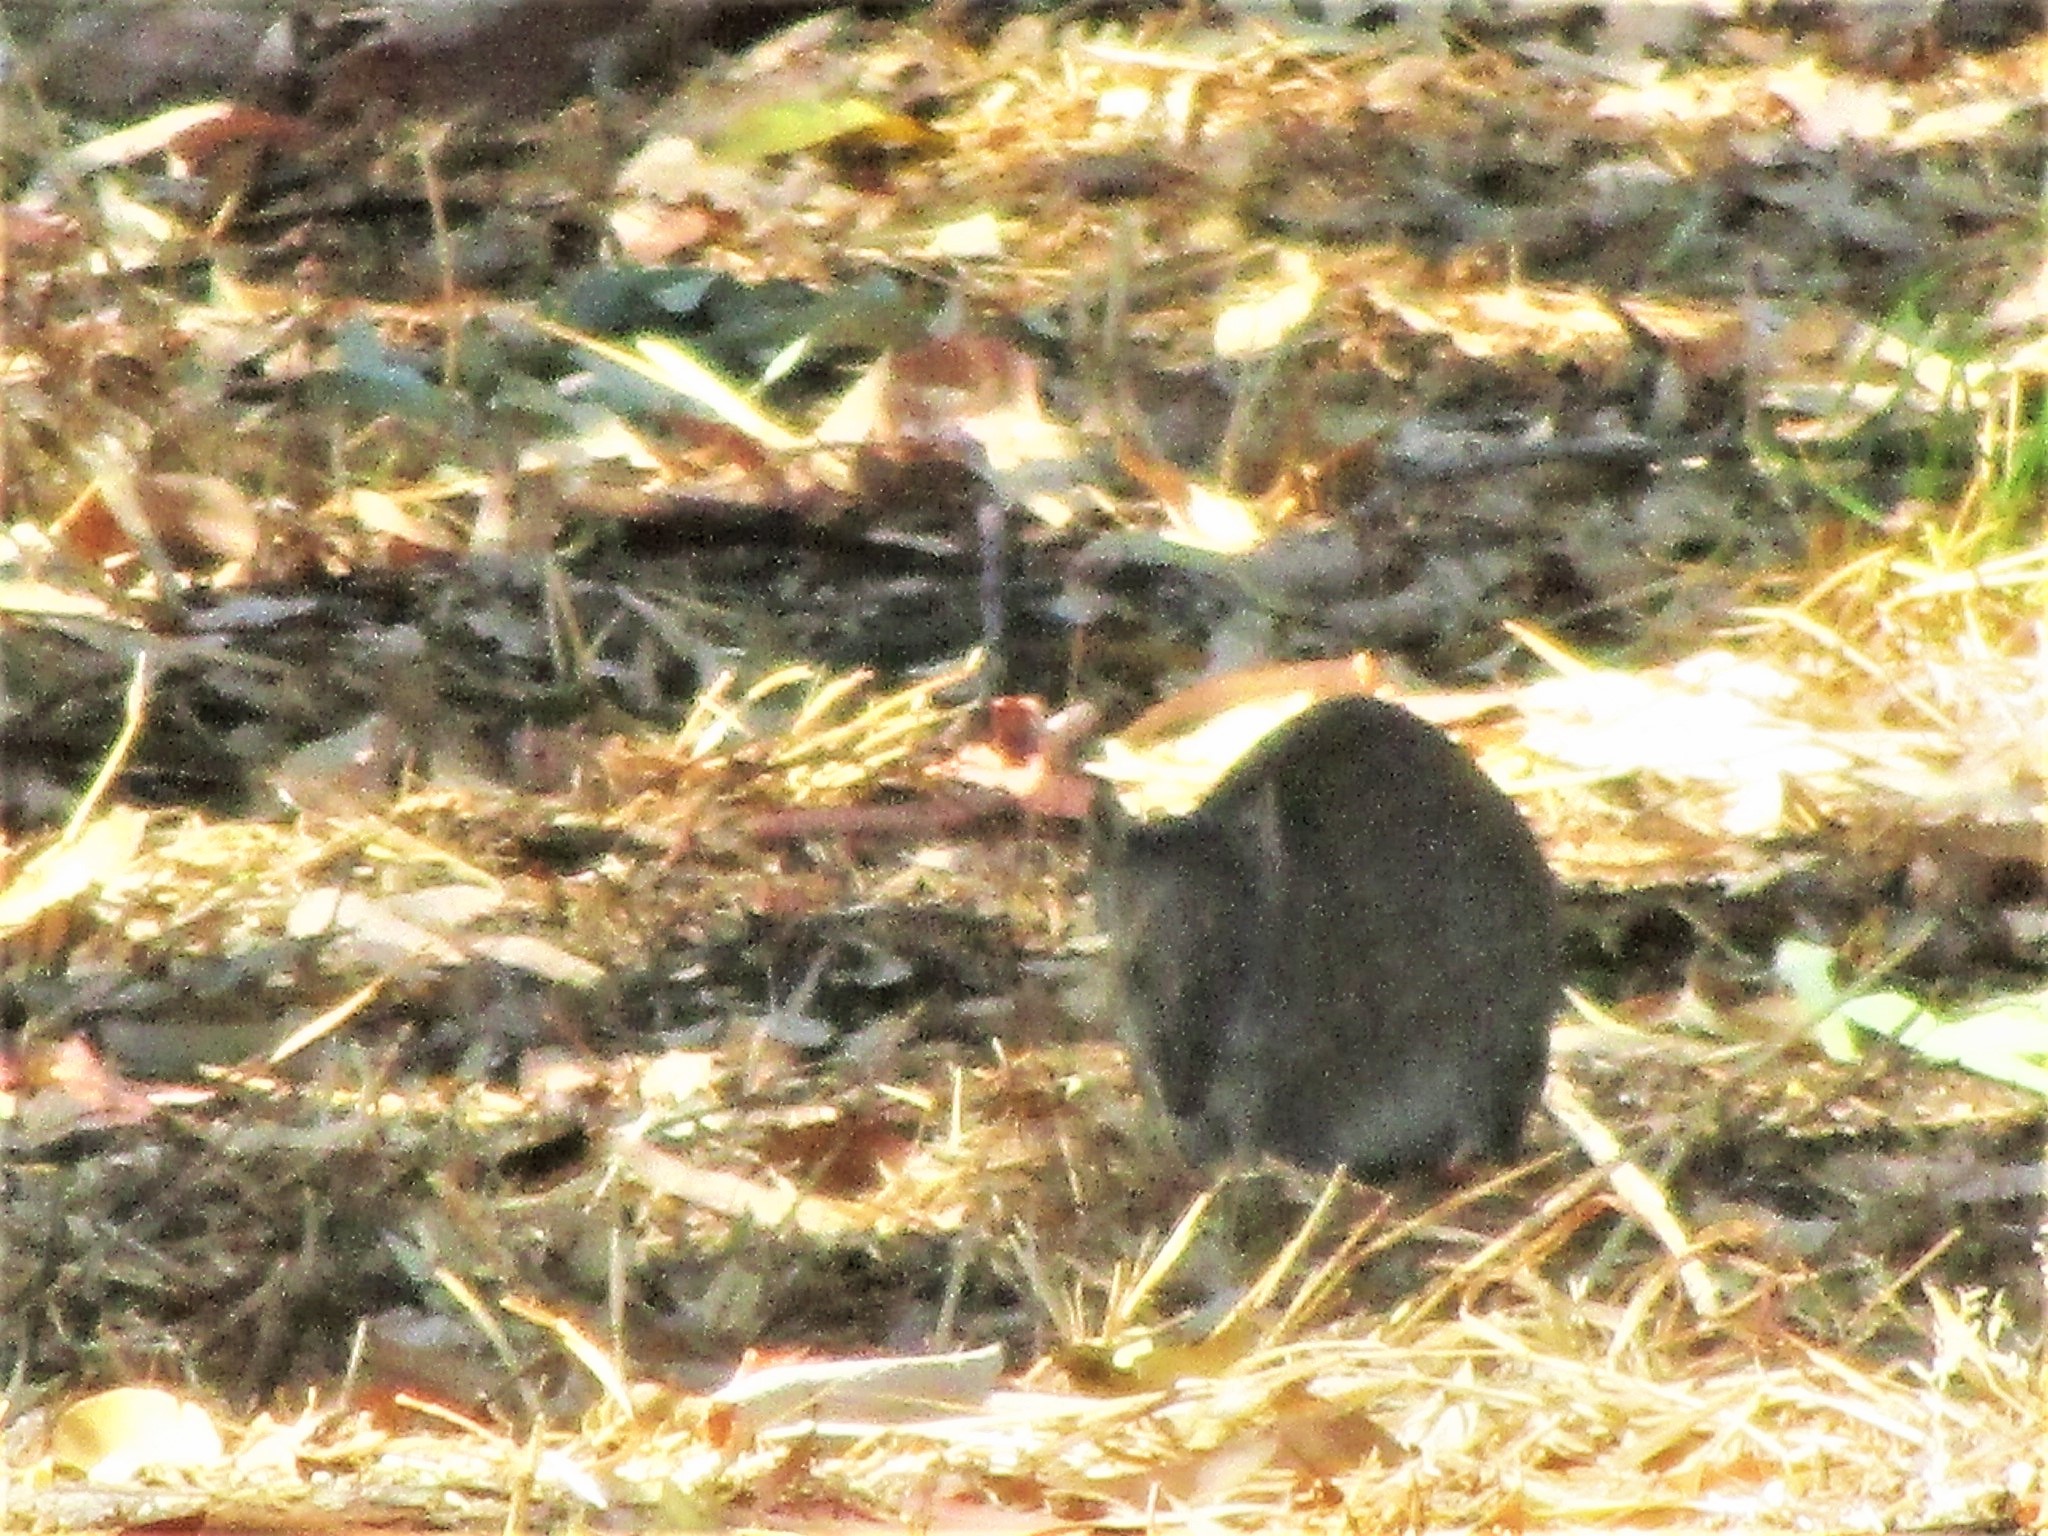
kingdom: Animalia
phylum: Chordata
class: Mammalia
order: Peramelemorphia
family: Peramelidae
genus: Isoodon
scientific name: Isoodon fusciventer
